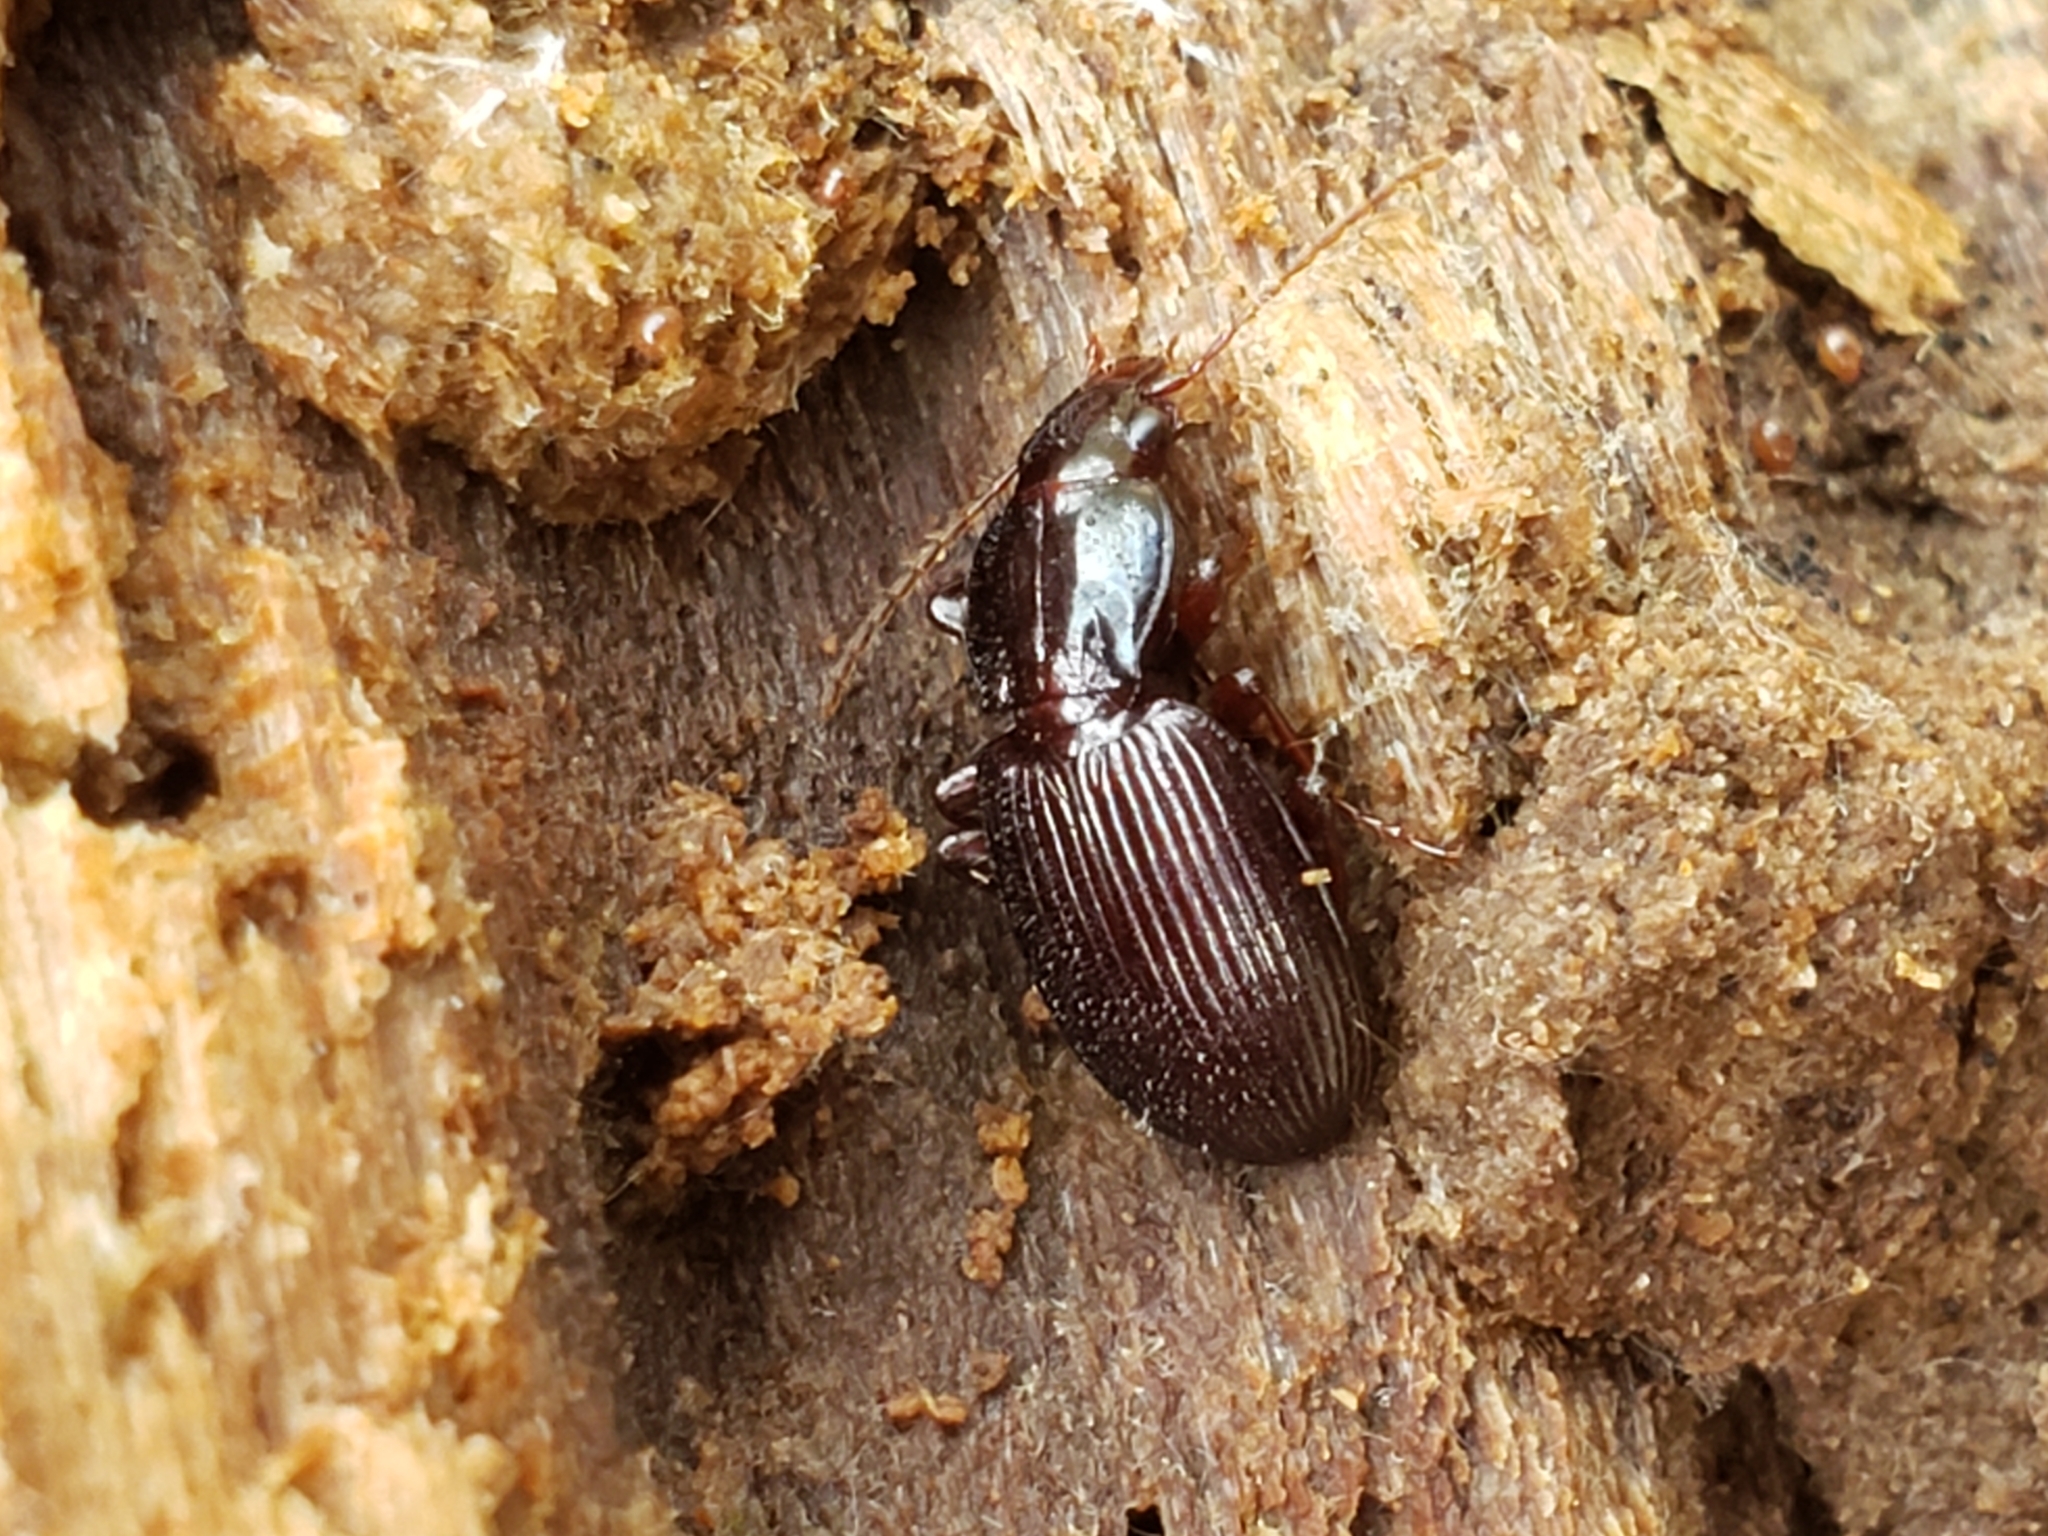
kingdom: Animalia
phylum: Arthropoda
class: Insecta
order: Coleoptera
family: Carabidae
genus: Gastrellarius
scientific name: Gastrellarius honestus
